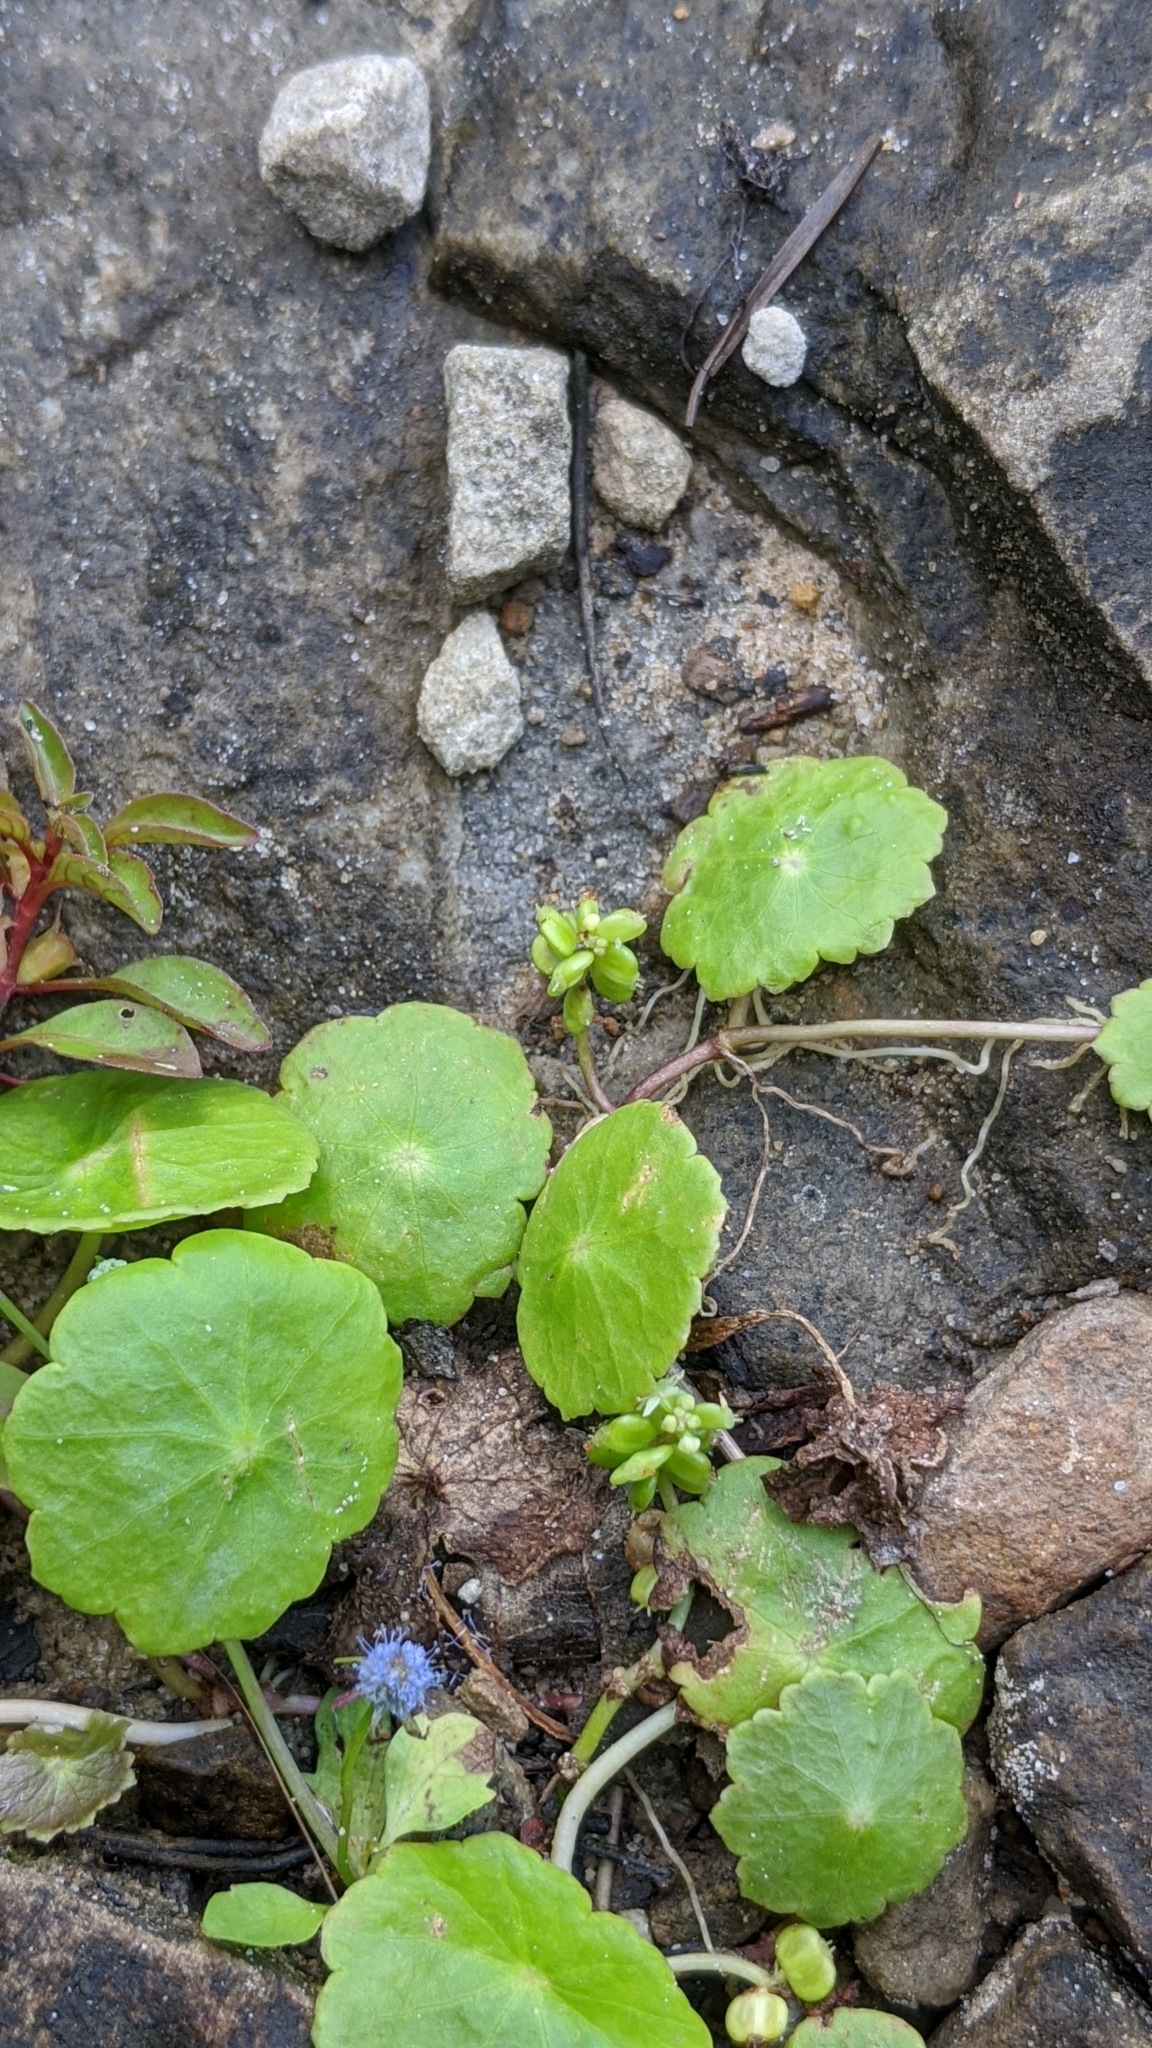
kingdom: Plantae
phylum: Tracheophyta
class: Magnoliopsida
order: Apiales
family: Araliaceae
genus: Hydrocotyle
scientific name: Hydrocotyle verticillata
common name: Whorled marshpennywort
